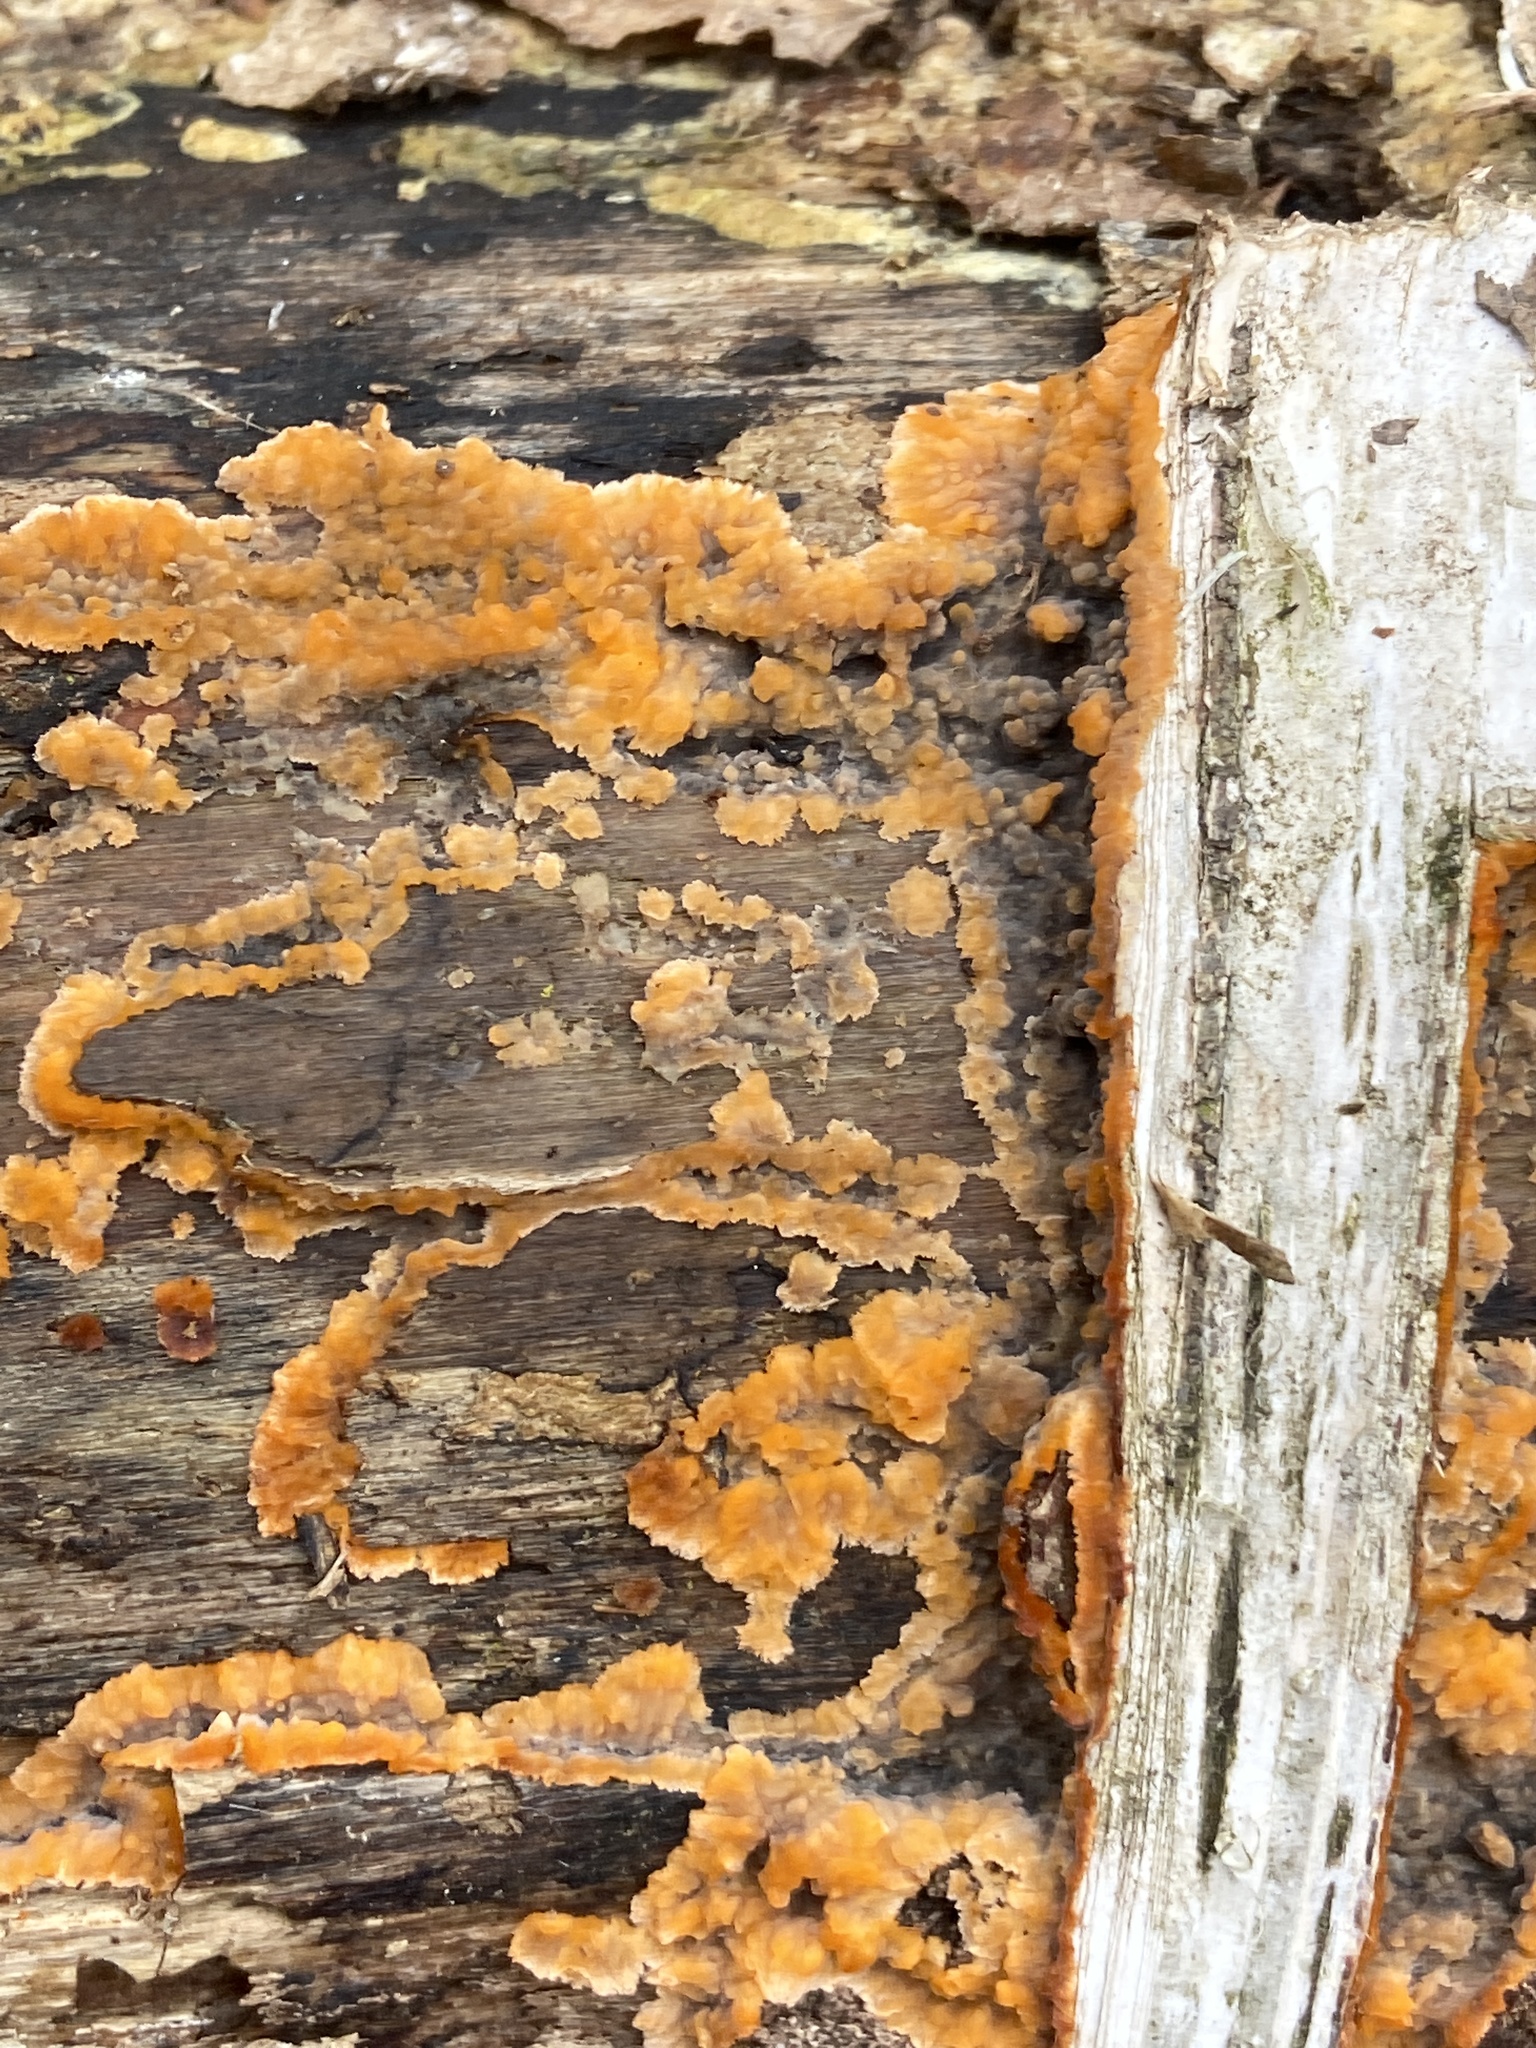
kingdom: Fungi
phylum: Basidiomycota
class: Agaricomycetes
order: Polyporales
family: Meruliaceae
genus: Phlebia
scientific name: Phlebia radiata
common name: Wrinkled crust
